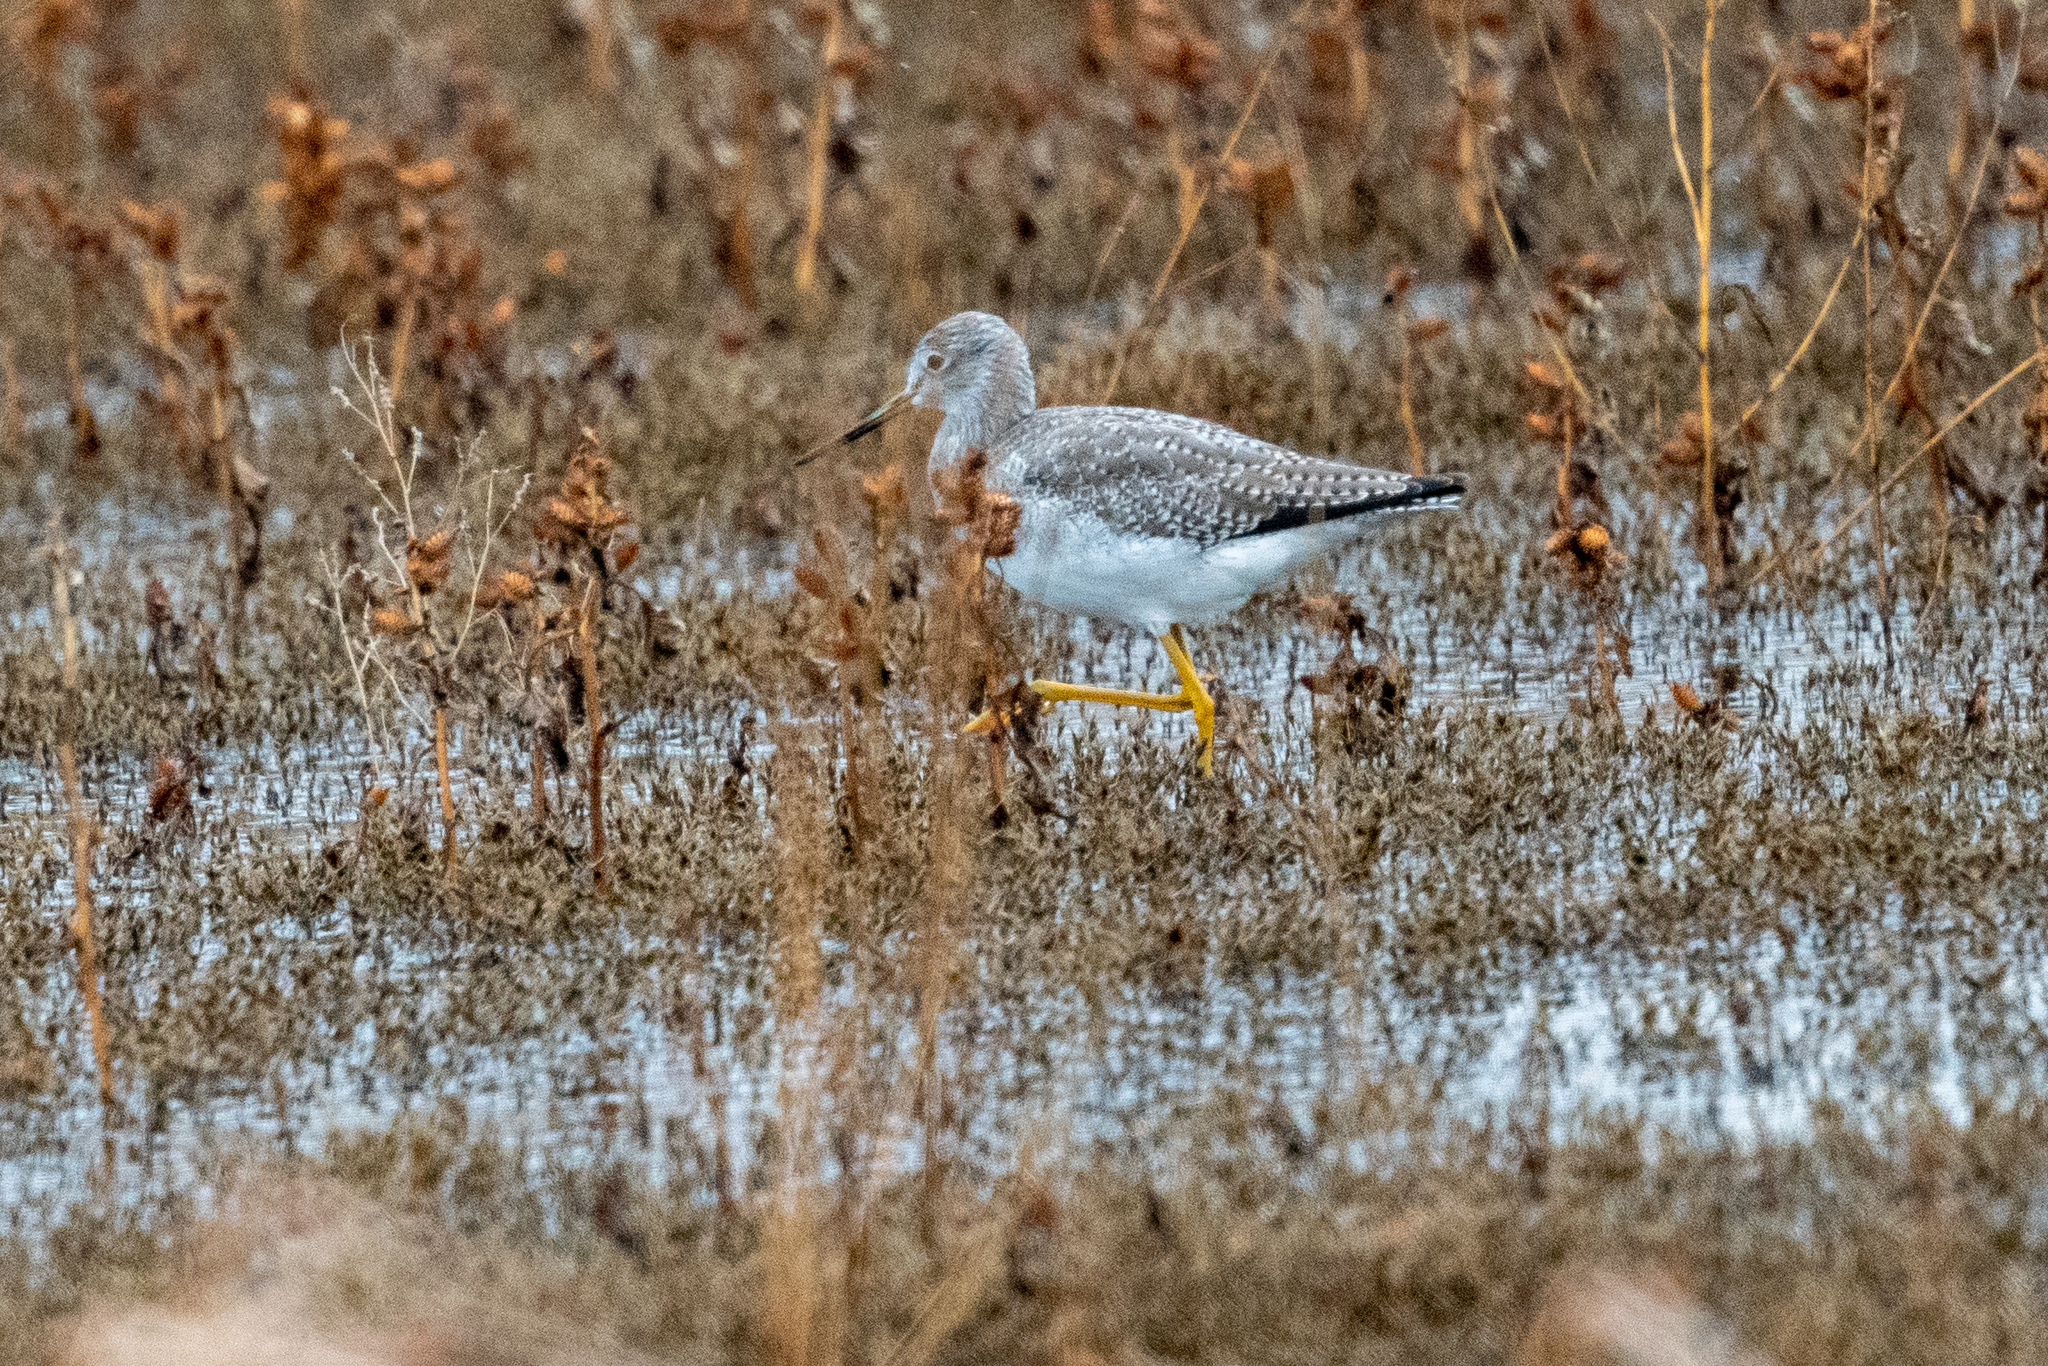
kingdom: Animalia
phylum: Chordata
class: Aves
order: Charadriiformes
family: Scolopacidae
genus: Tringa
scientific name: Tringa melanoleuca
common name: Greater yellowlegs
